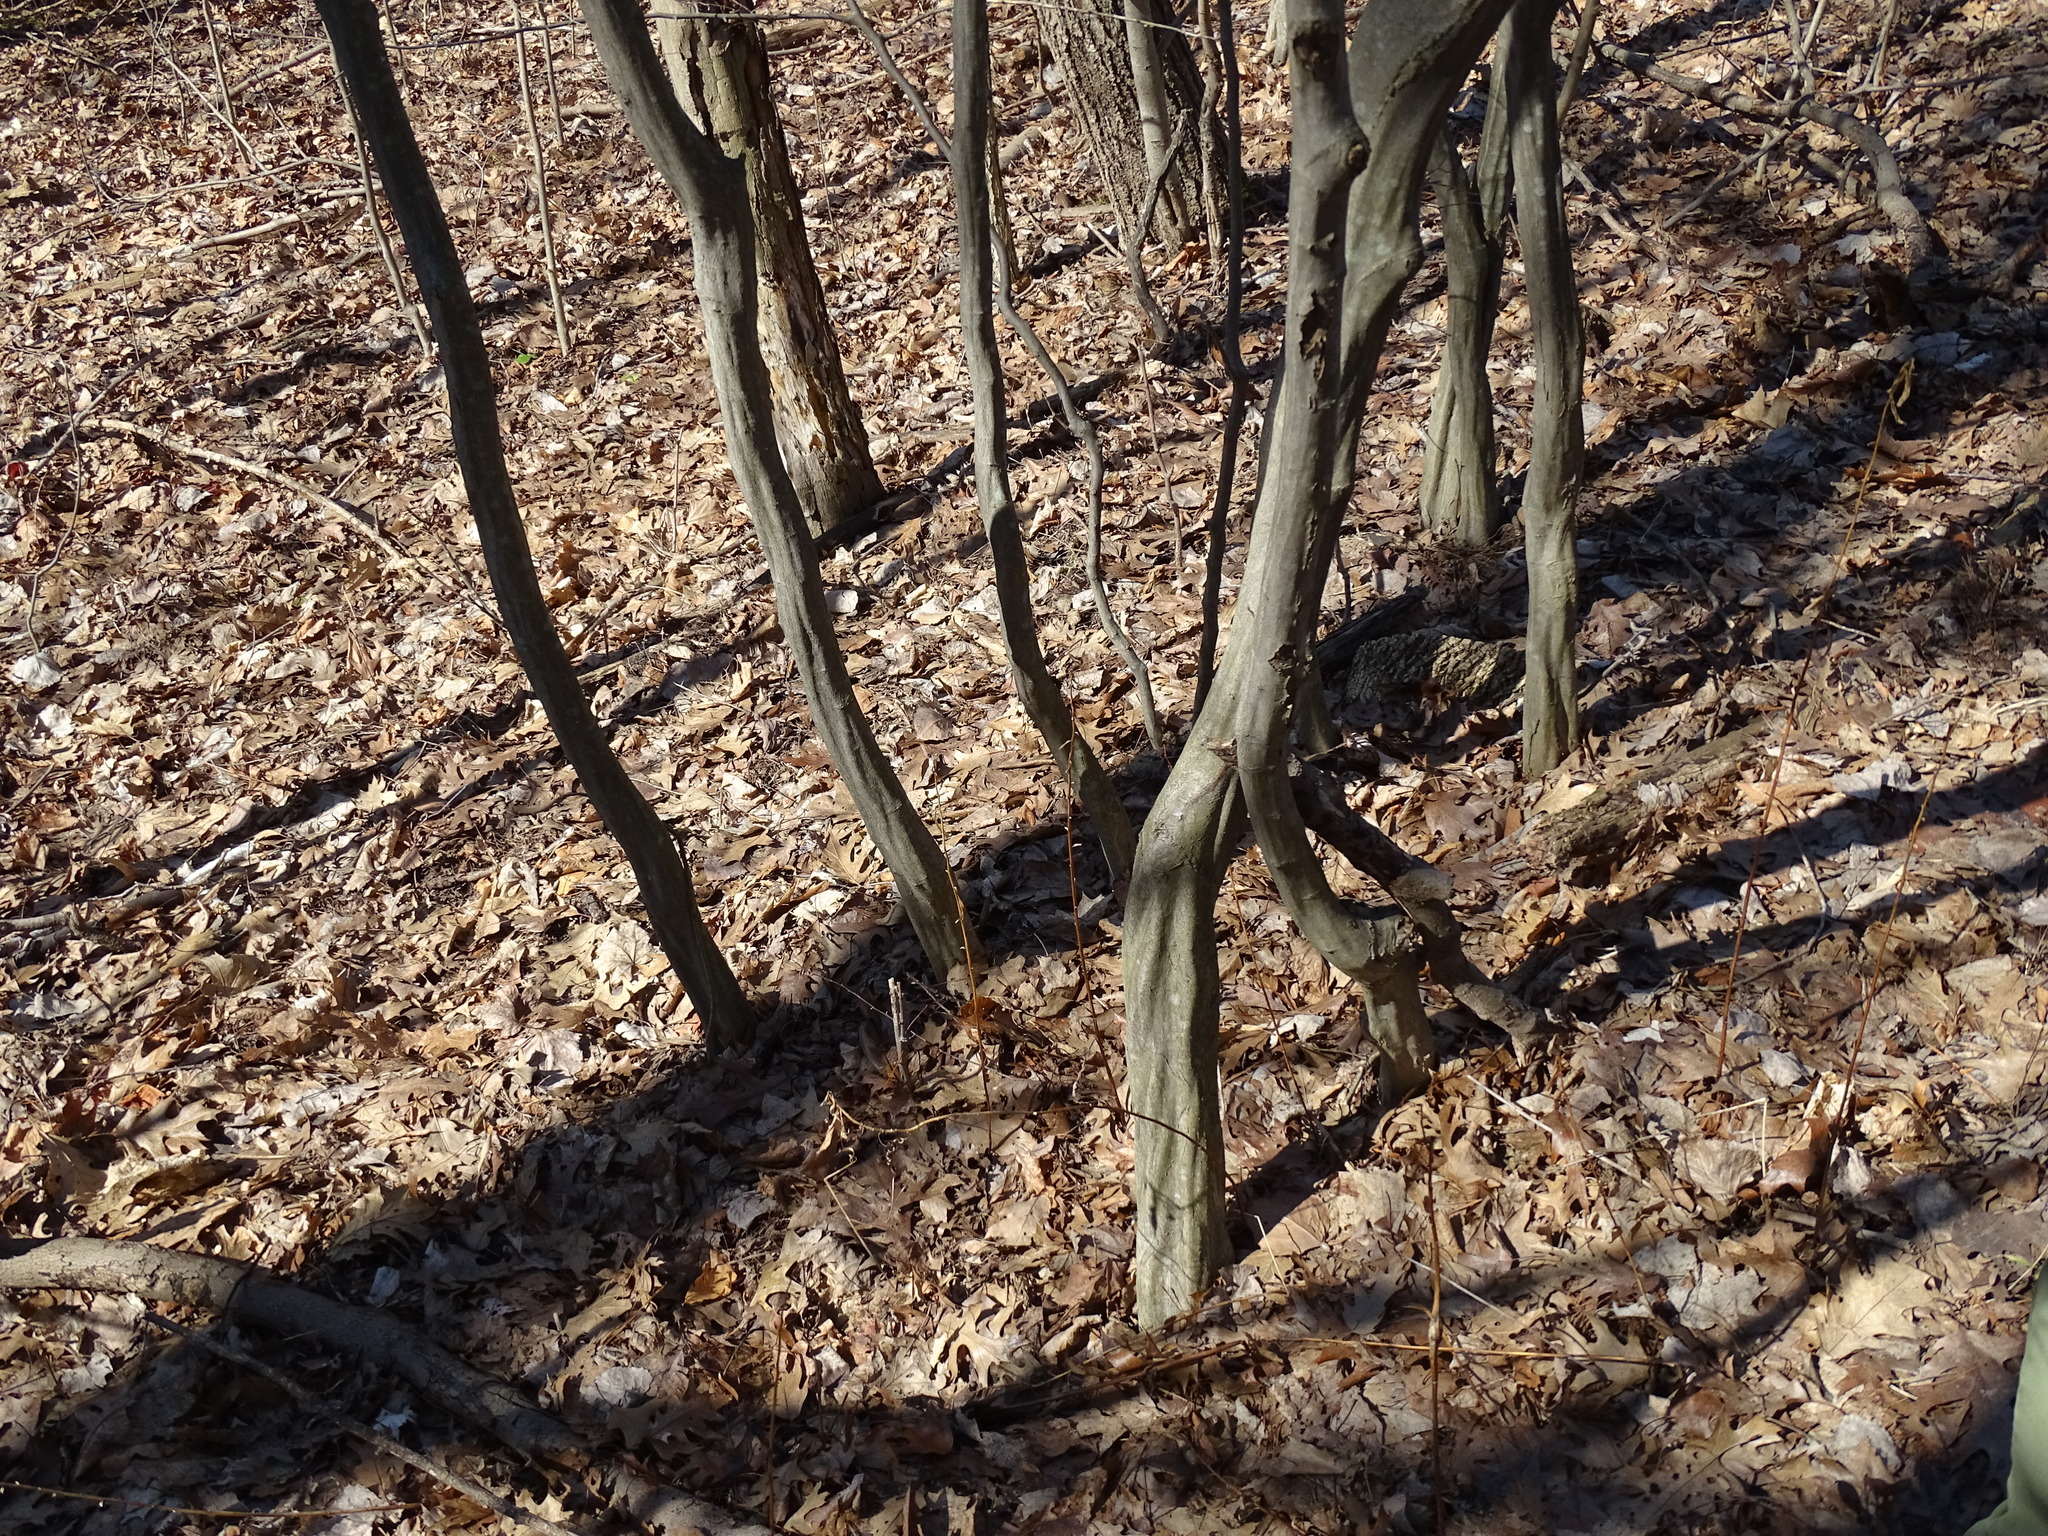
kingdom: Plantae
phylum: Tracheophyta
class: Magnoliopsida
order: Fagales
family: Betulaceae
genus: Carpinus
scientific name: Carpinus caroliniana
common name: American hornbeam
